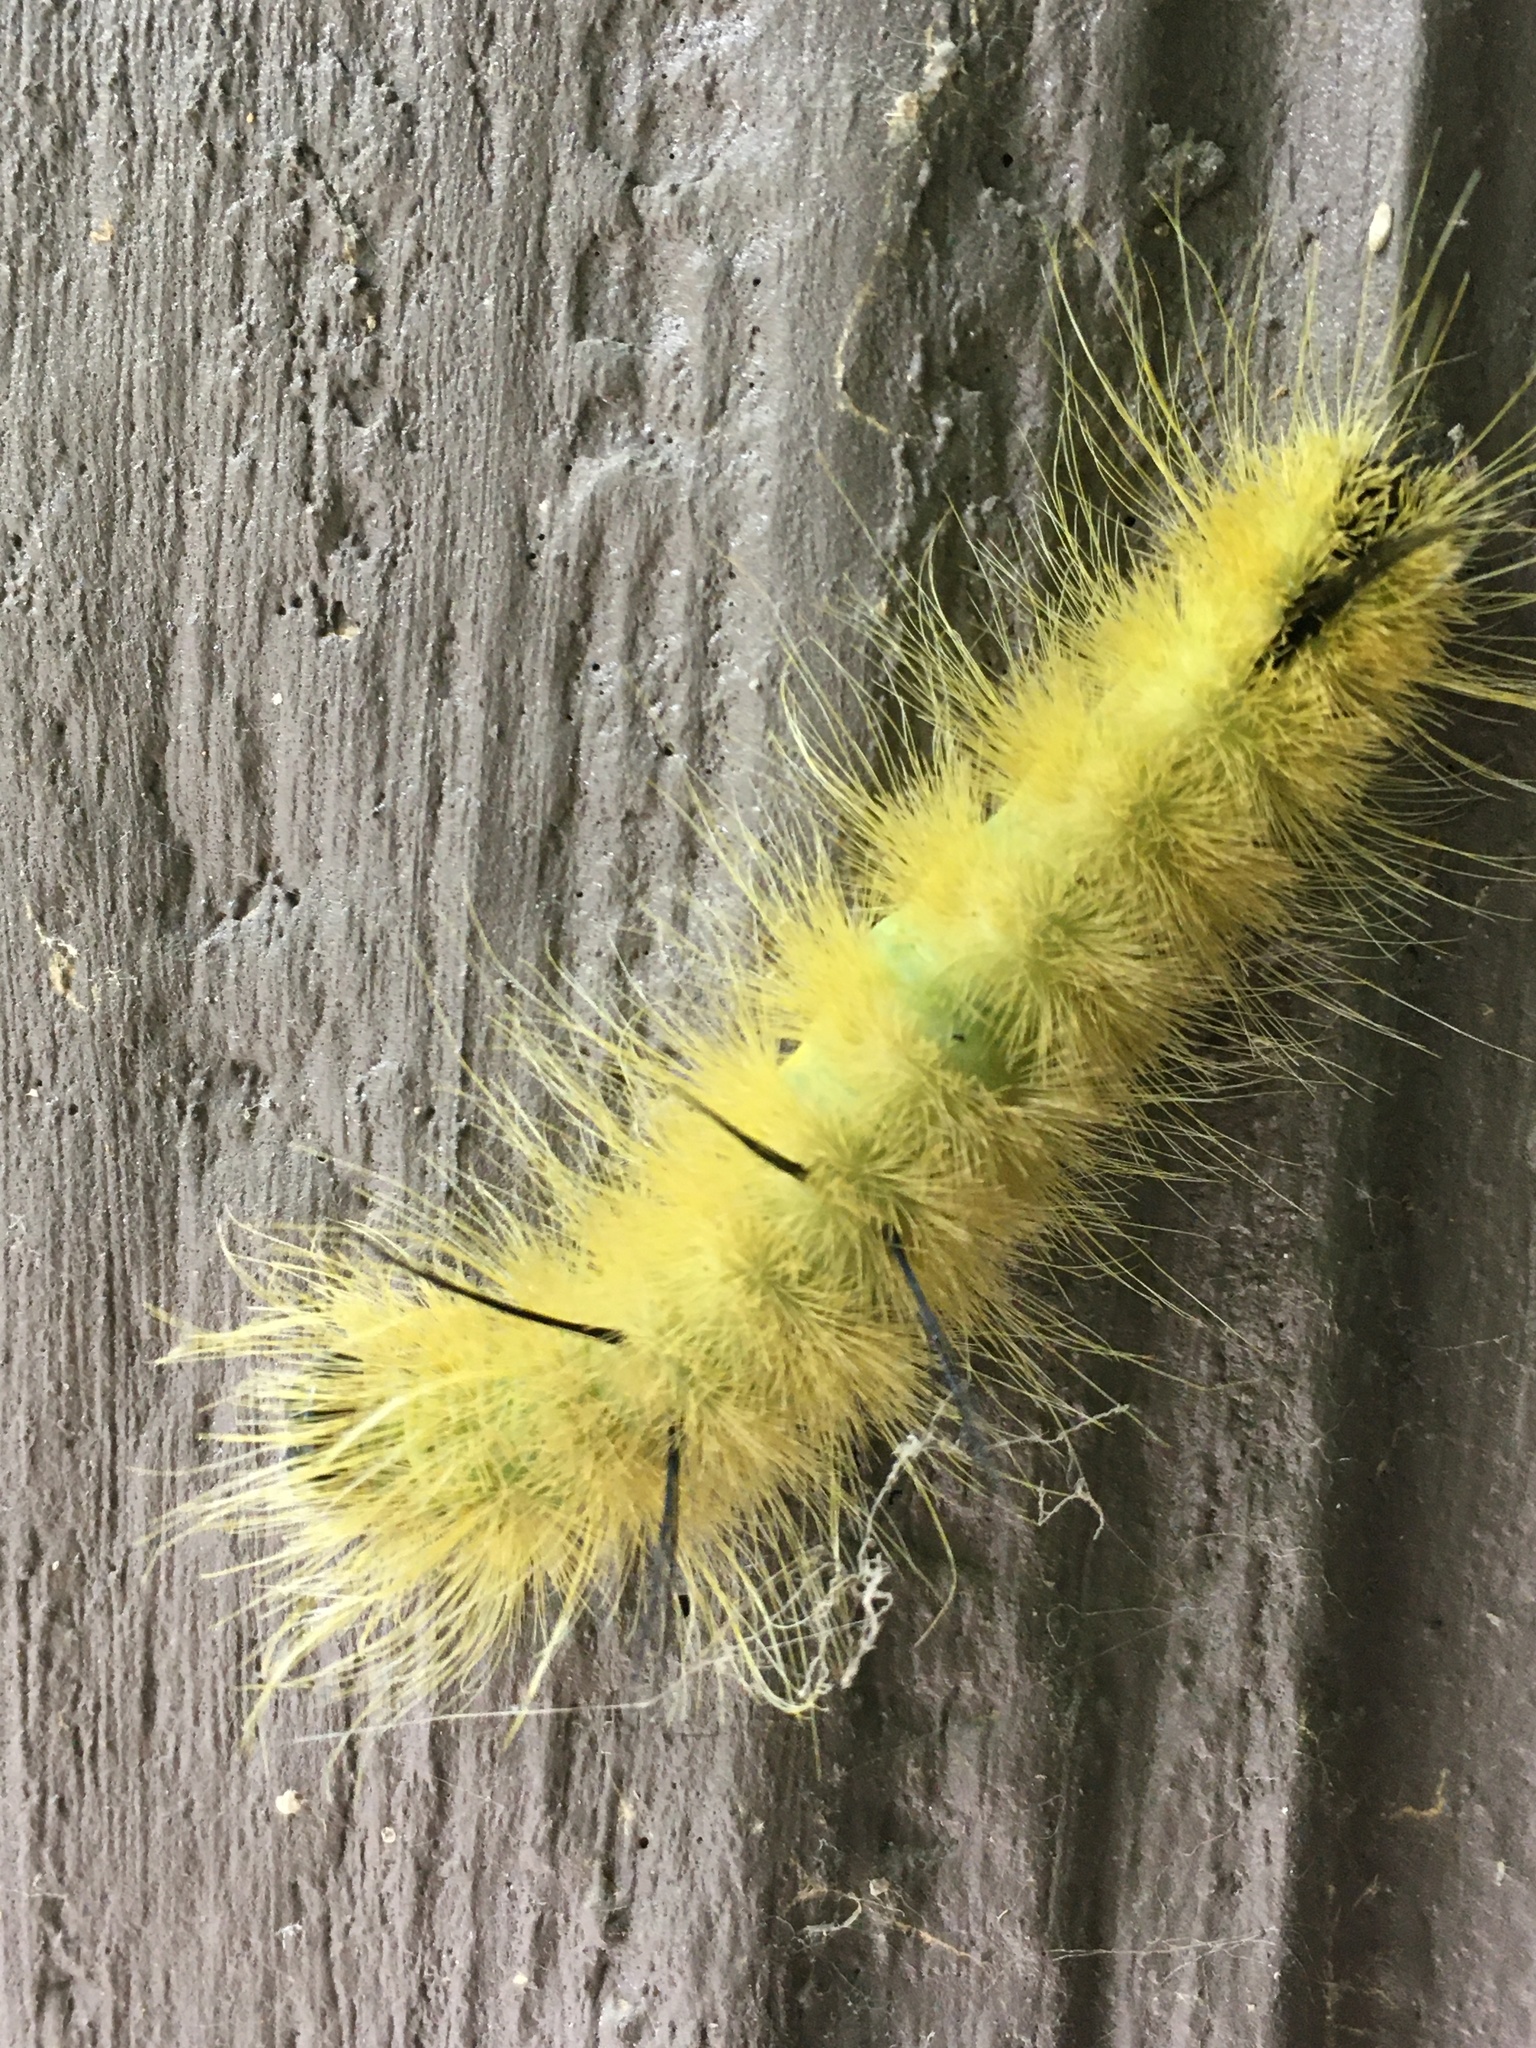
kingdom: Animalia
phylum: Arthropoda
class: Insecta
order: Lepidoptera
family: Noctuidae
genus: Acronicta
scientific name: Acronicta americana
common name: American dagger
